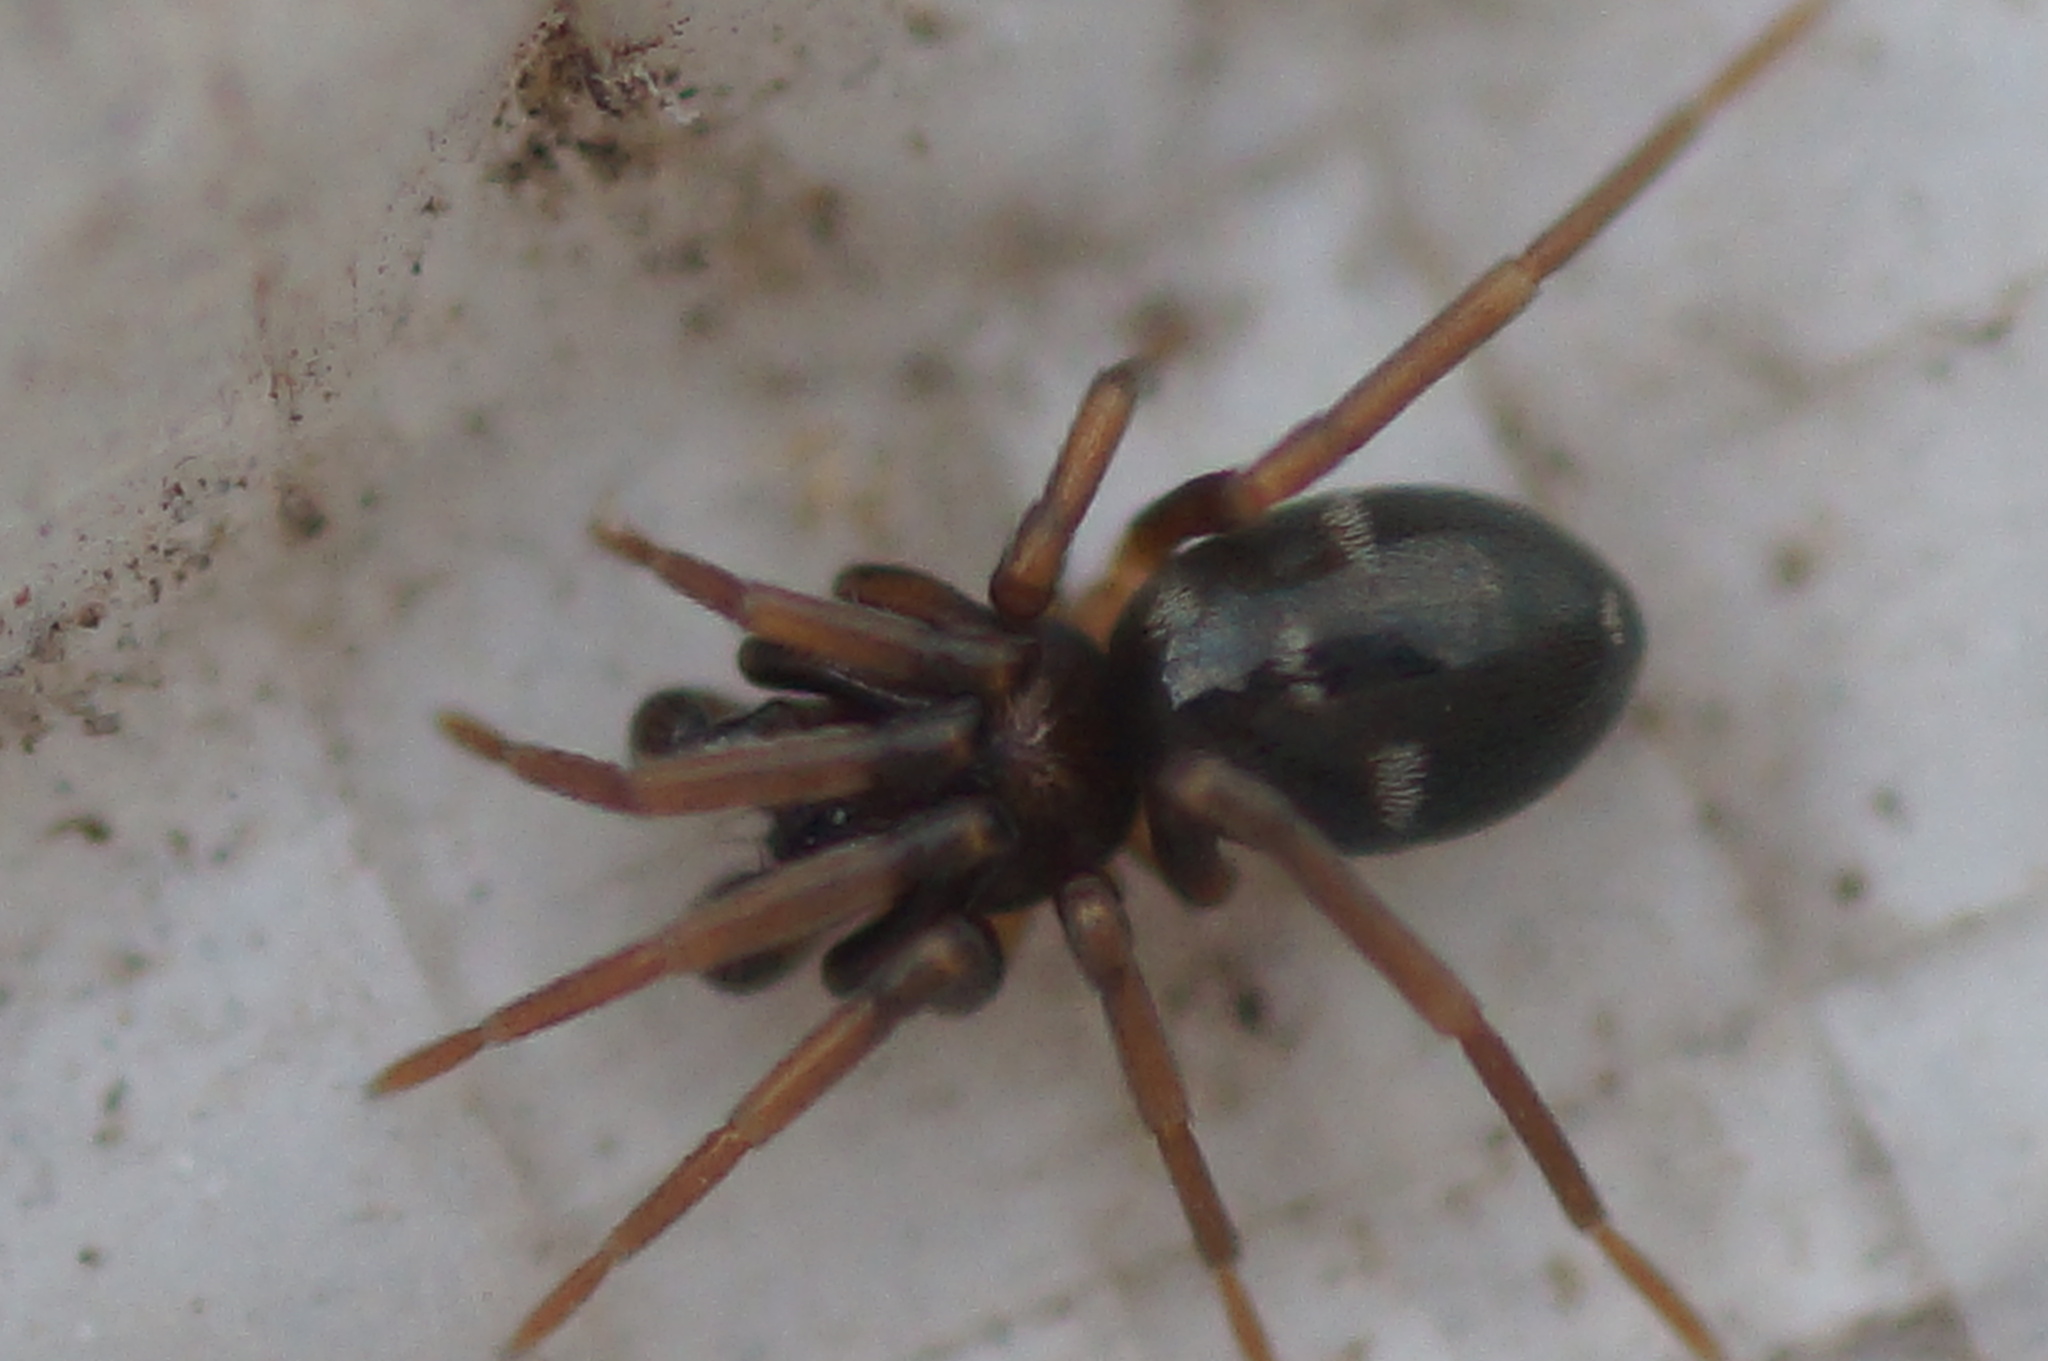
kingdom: Animalia
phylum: Arthropoda
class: Arachnida
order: Araneae
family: Phrurolithidae
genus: Phrurolithus
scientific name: Phrurolithus festivus
